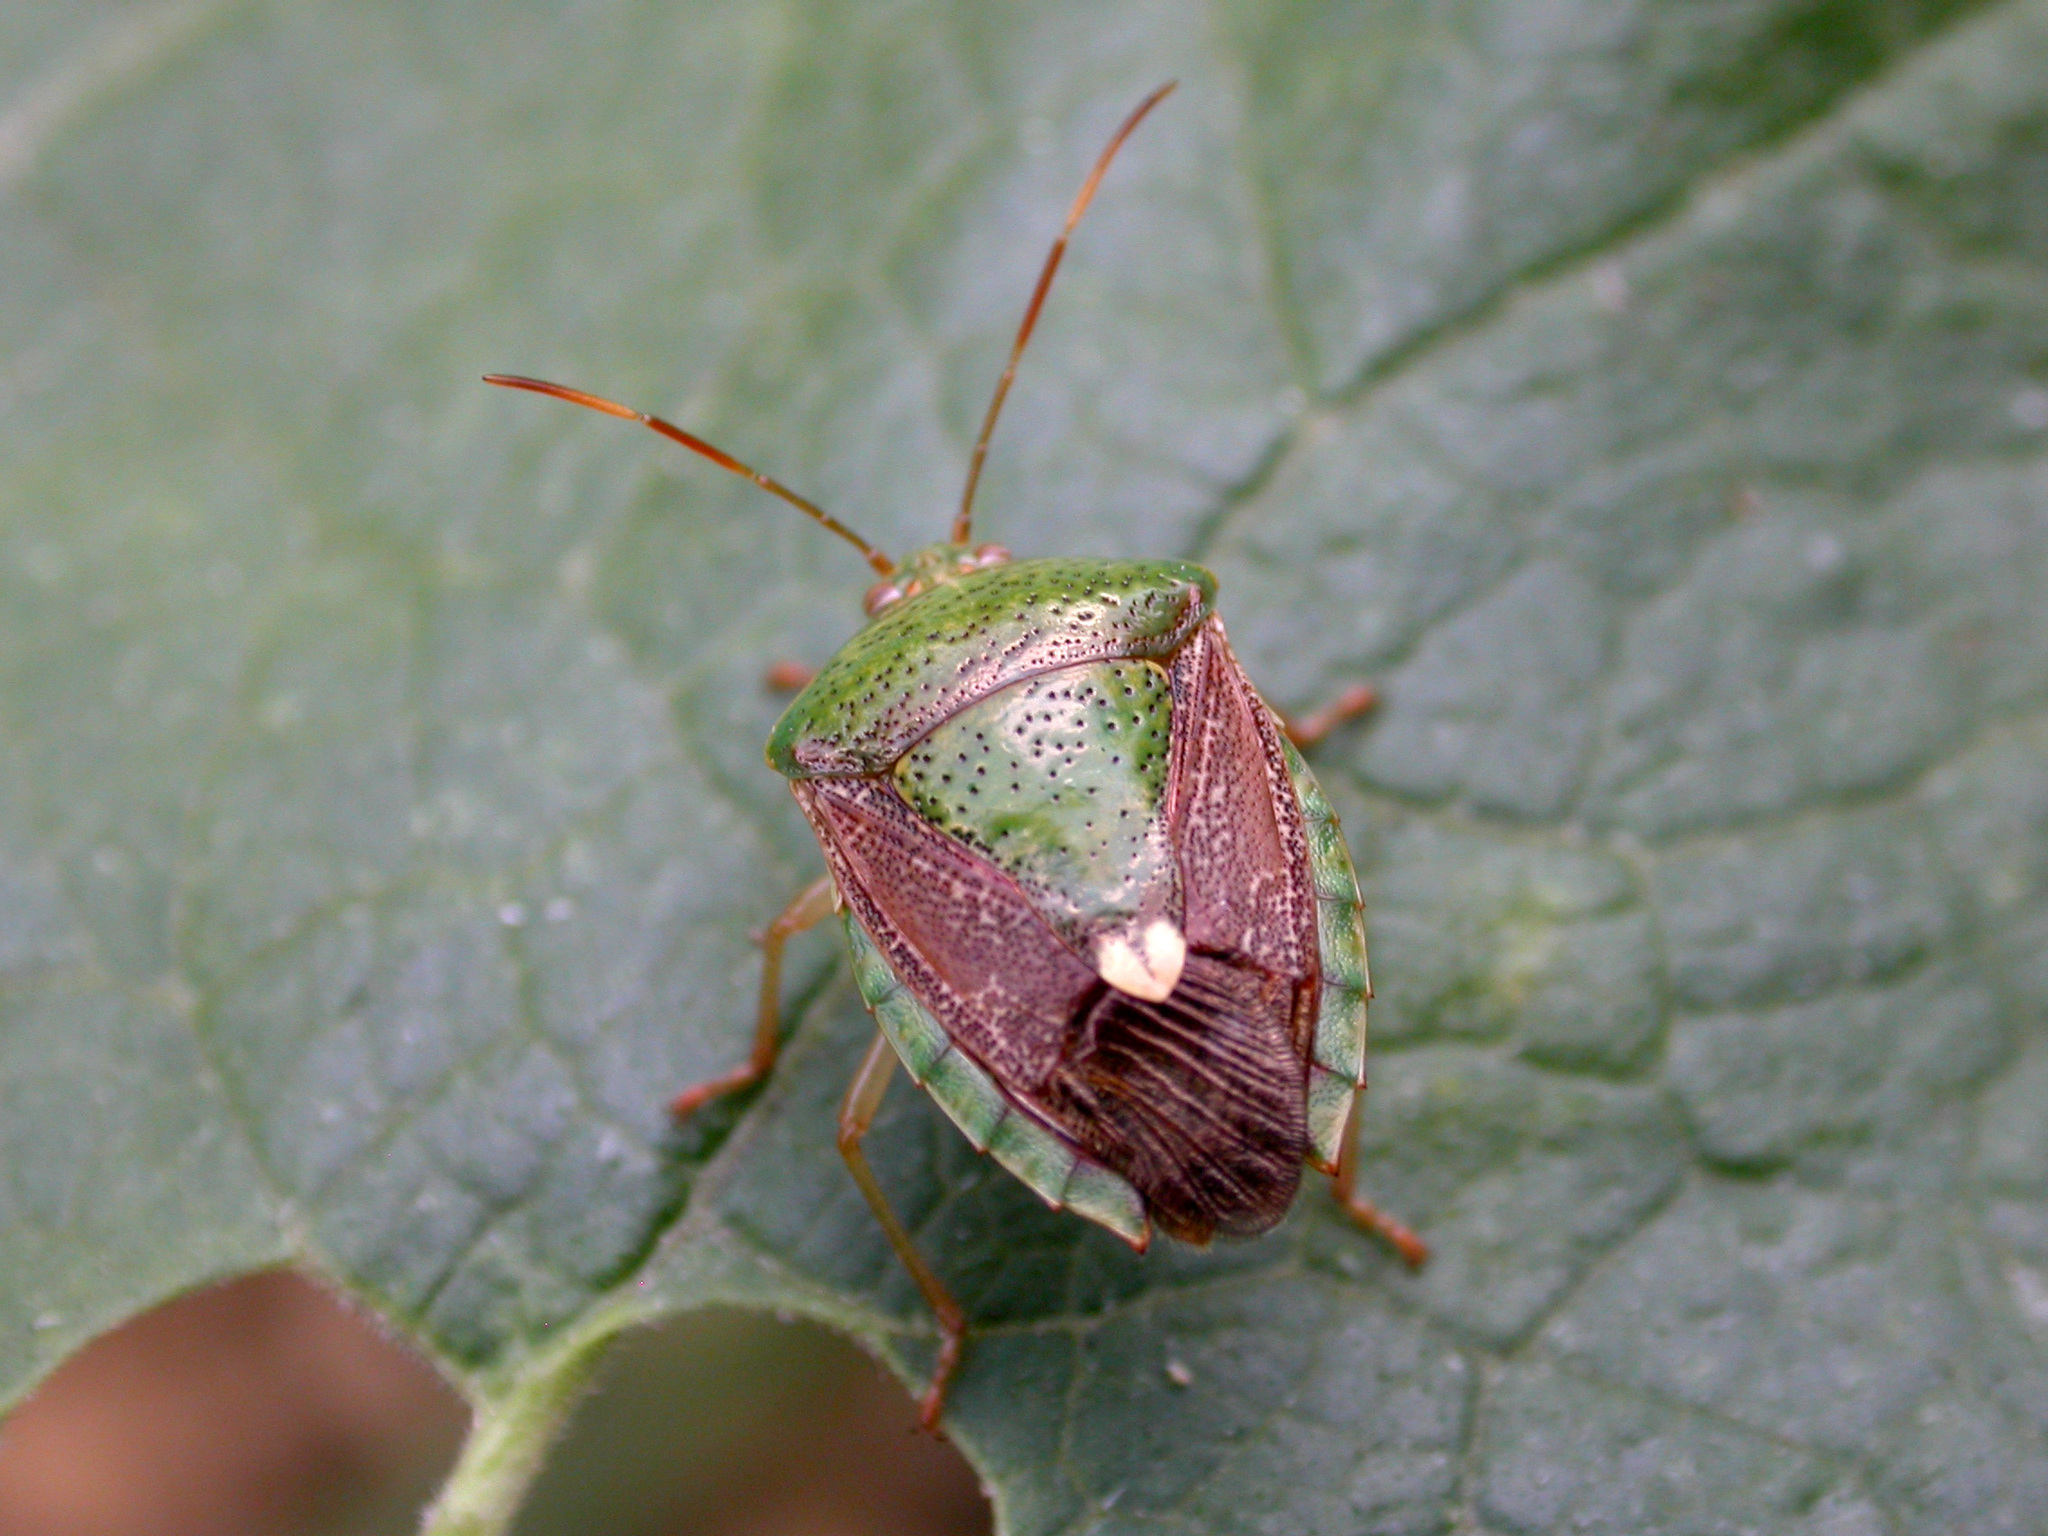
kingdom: Animalia
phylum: Arthropoda
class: Insecta
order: Hemiptera
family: Pentatomidae
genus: Edessa
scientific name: Edessa bifida
